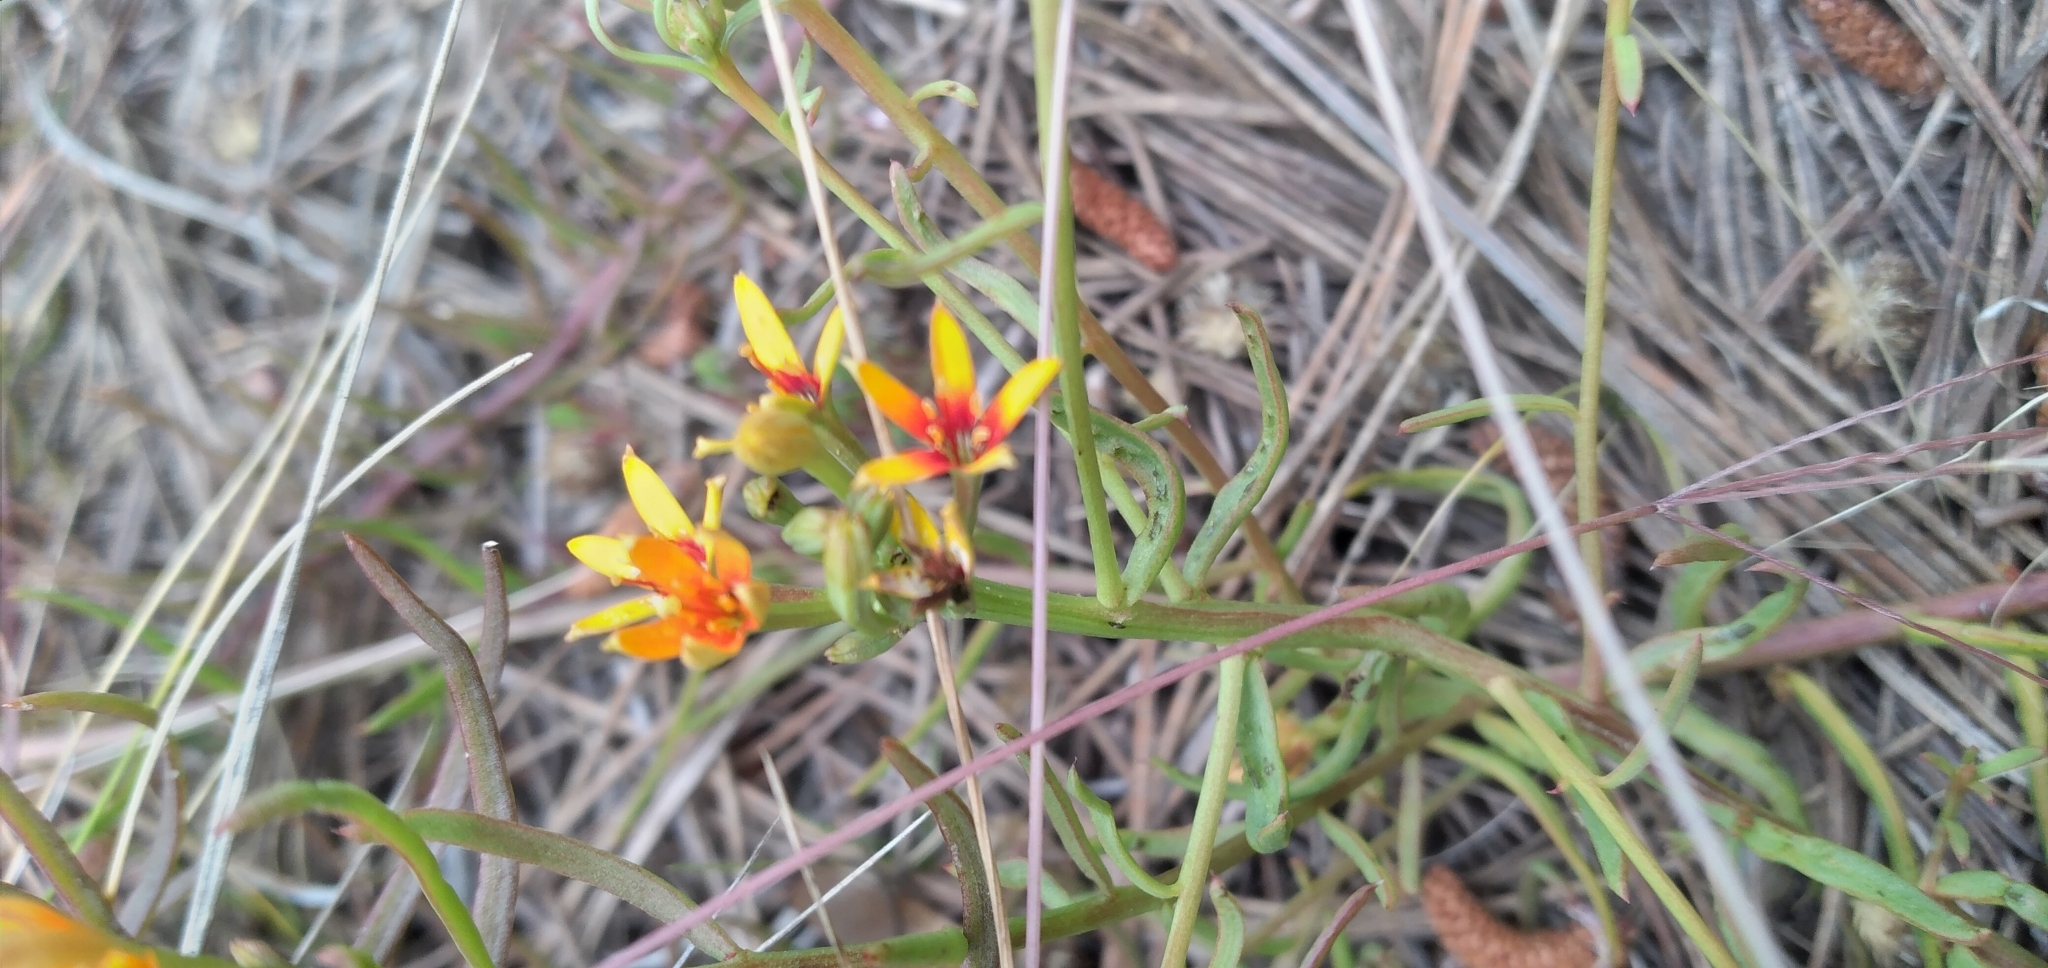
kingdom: Plantae
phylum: Tracheophyta
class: Magnoliopsida
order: Santalales
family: Schoepfiaceae
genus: Quinchamalium
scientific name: Quinchamalium chilense
